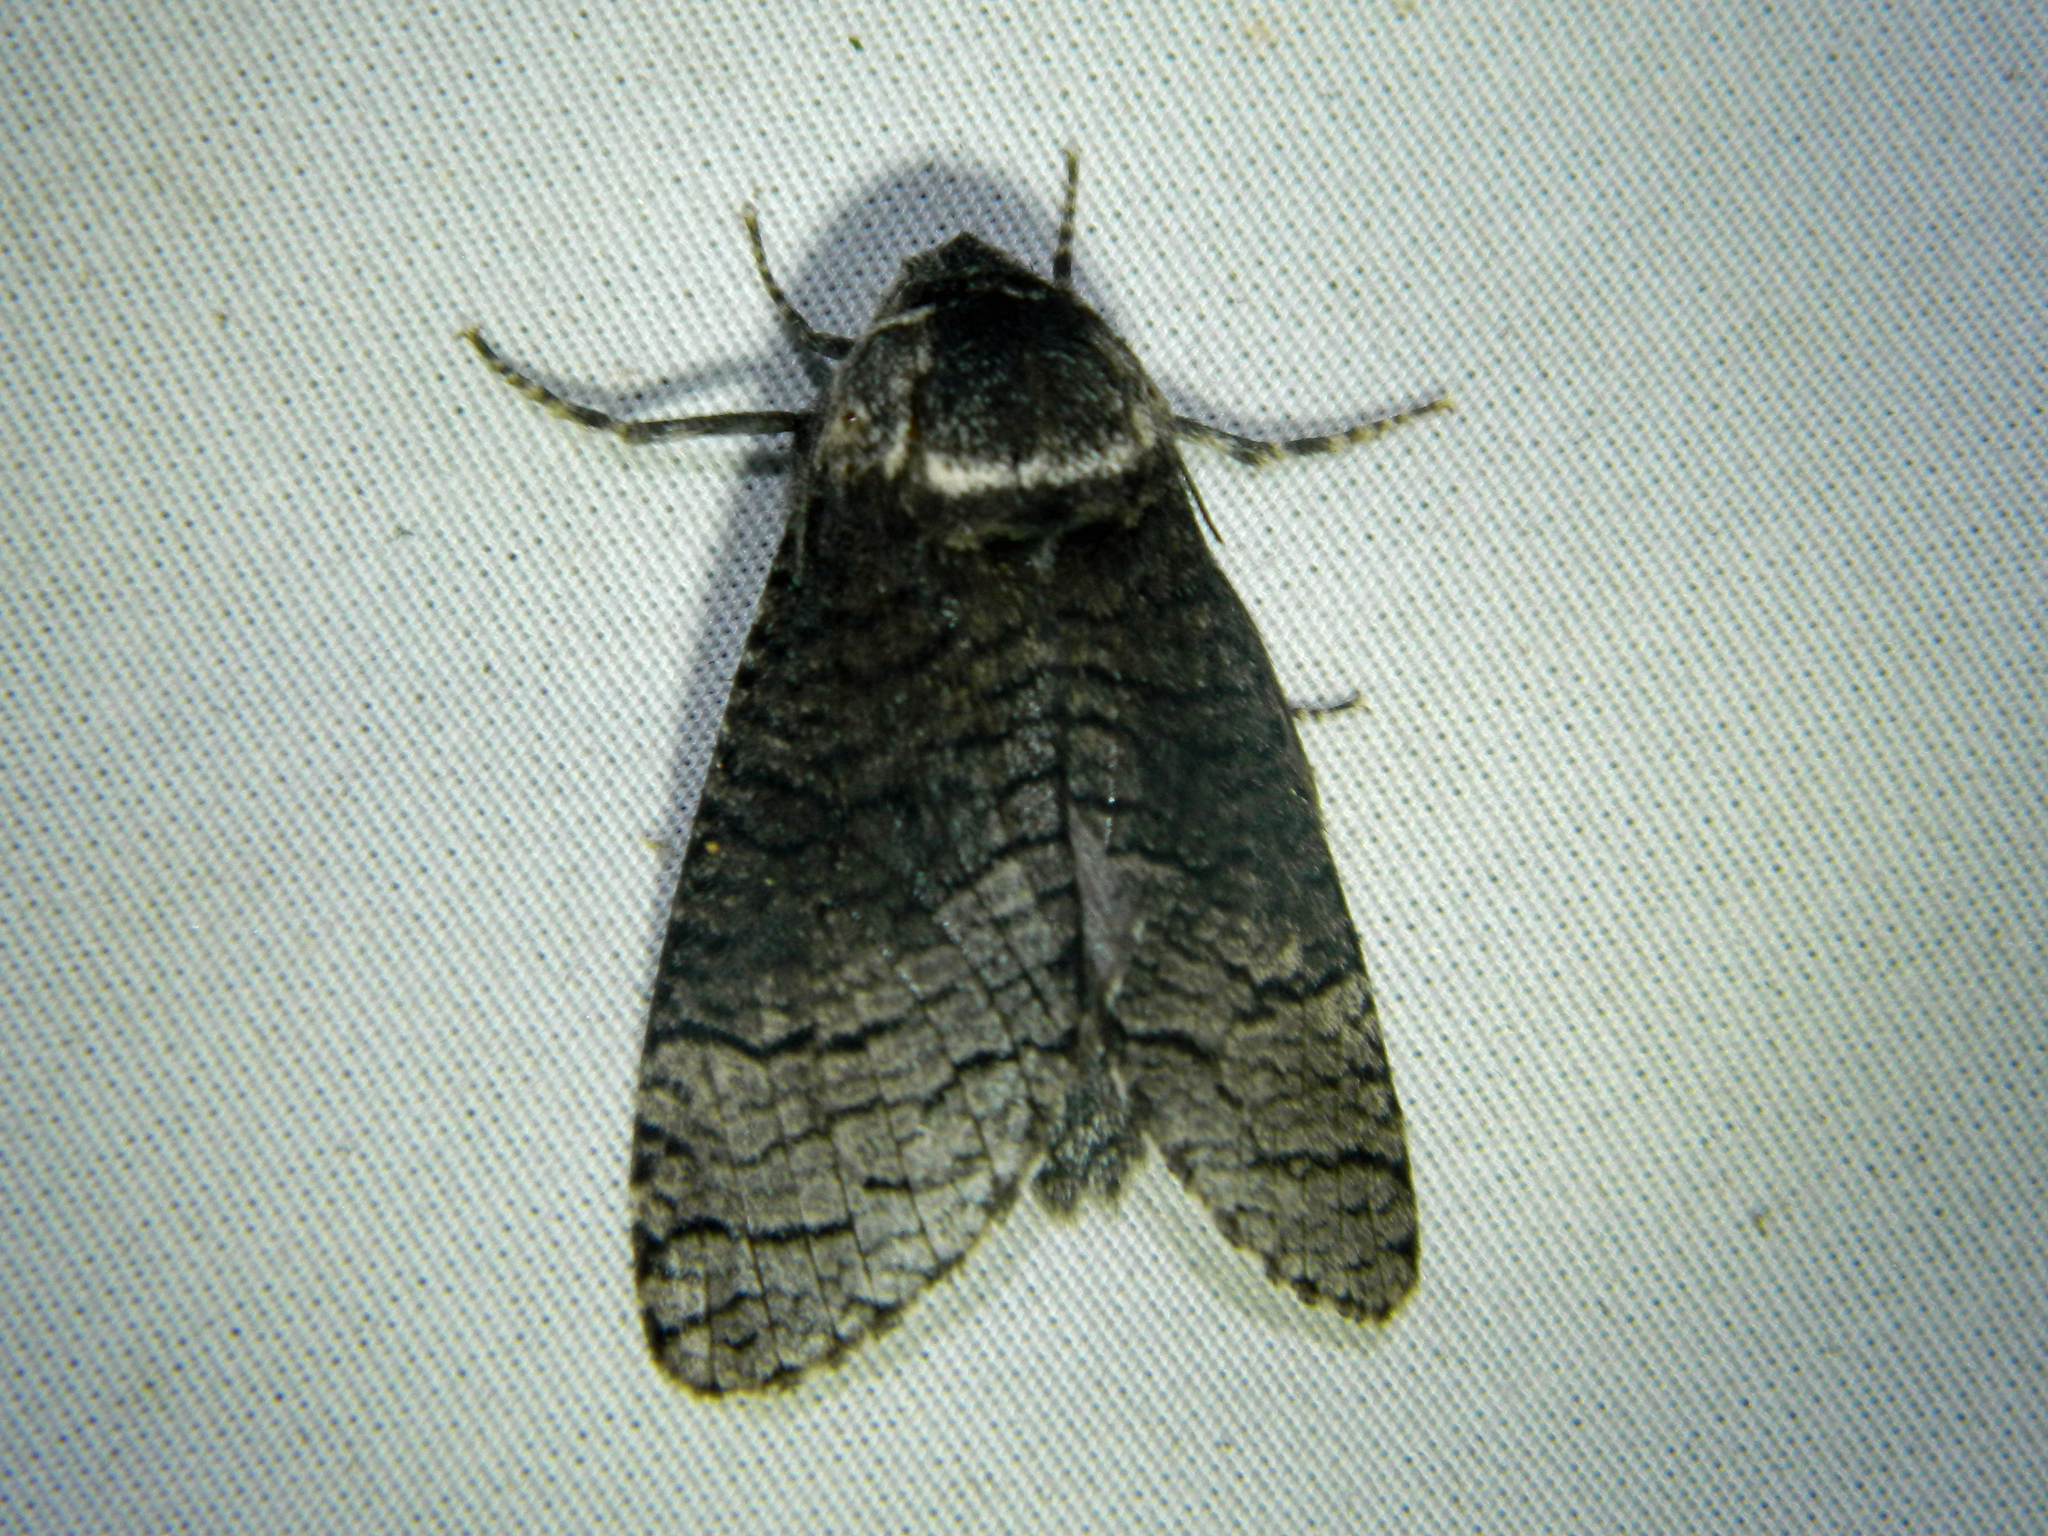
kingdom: Animalia
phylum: Arthropoda
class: Insecta
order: Lepidoptera
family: Cossidae
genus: Acossus
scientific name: Acossus centerensis
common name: Poplar carpenterworm moth
